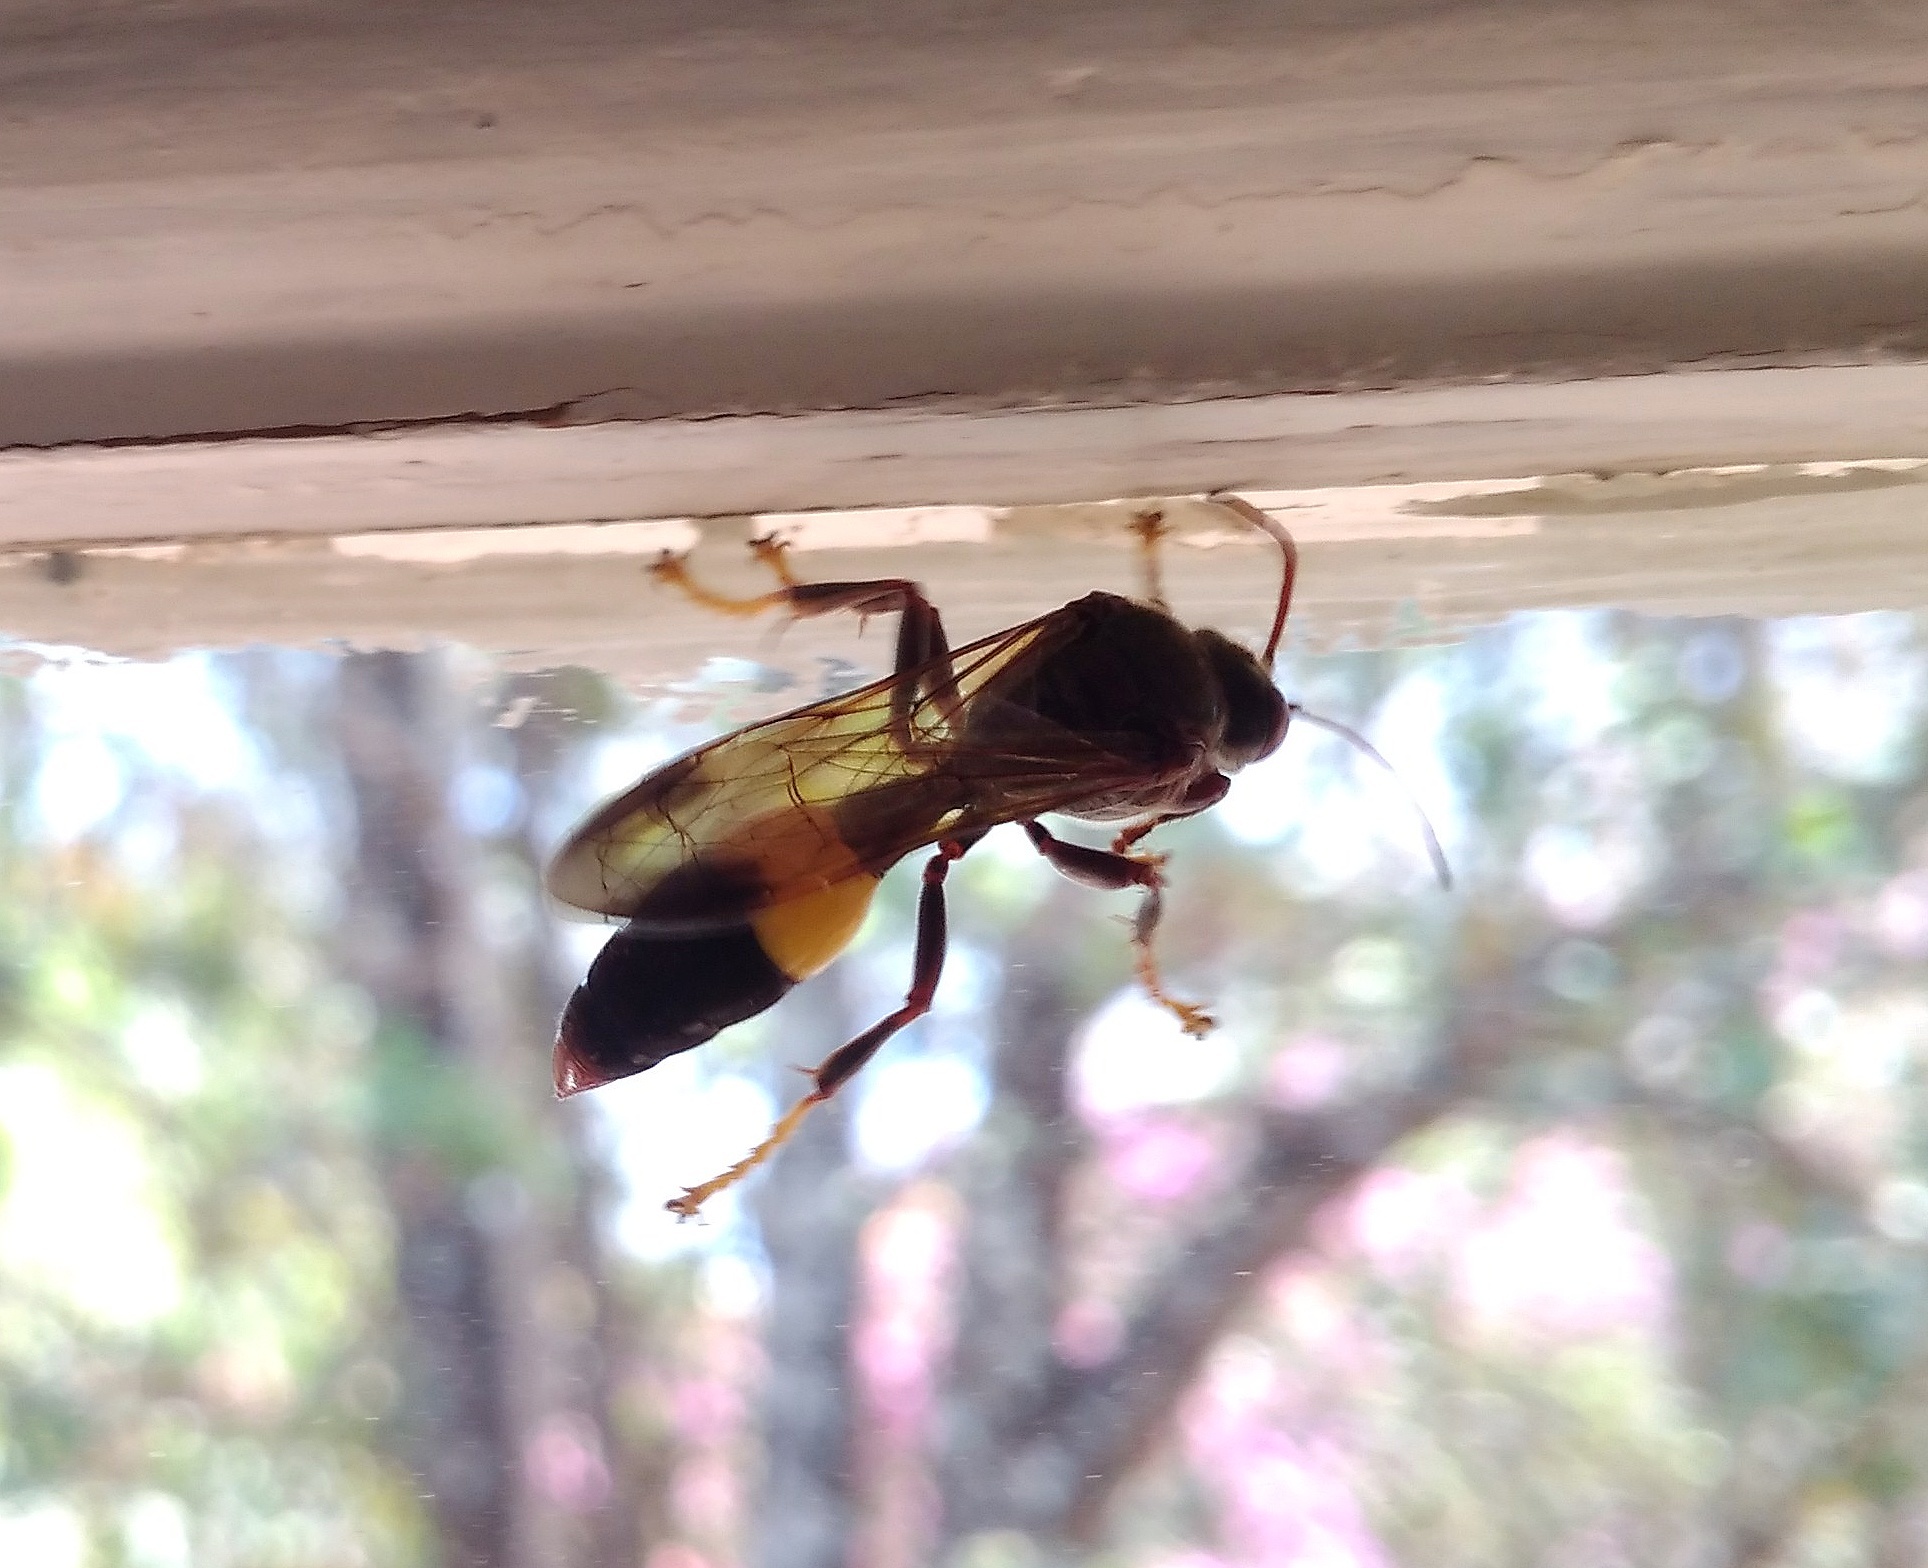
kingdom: Animalia
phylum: Arthropoda
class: Insecta
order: Hymenoptera
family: Crabronidae
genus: Gorytes
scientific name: Gorytes natalensis
